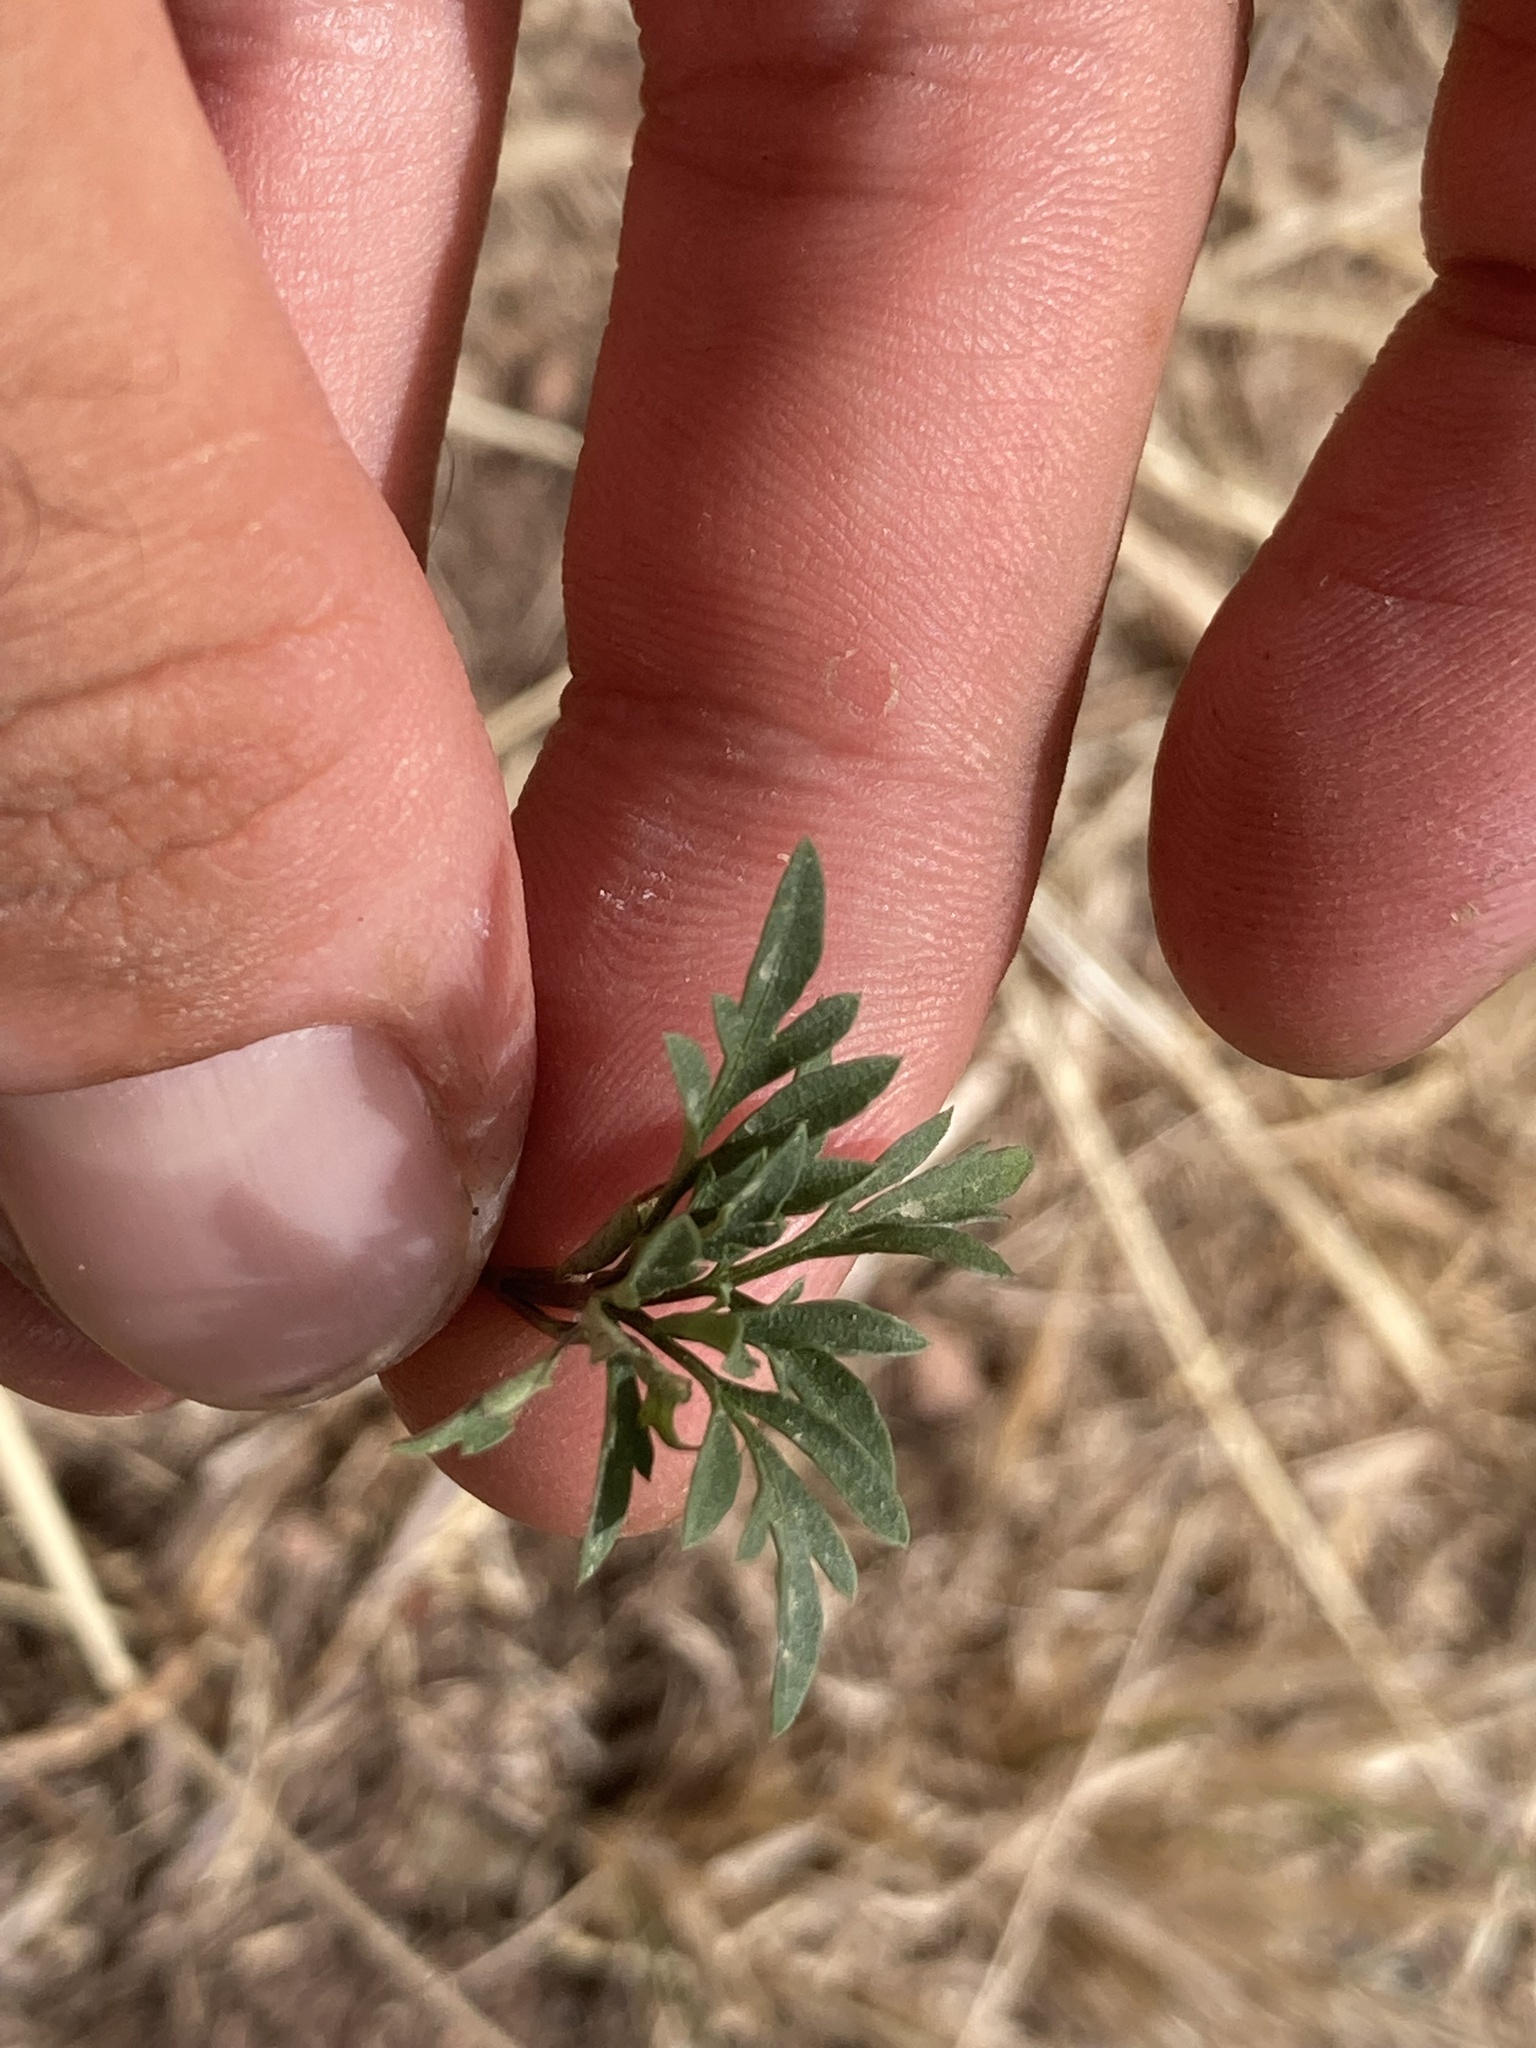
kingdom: Plantae
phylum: Tracheophyta
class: Magnoliopsida
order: Asterales
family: Asteraceae
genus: Bidens
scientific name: Bidens subalternans
